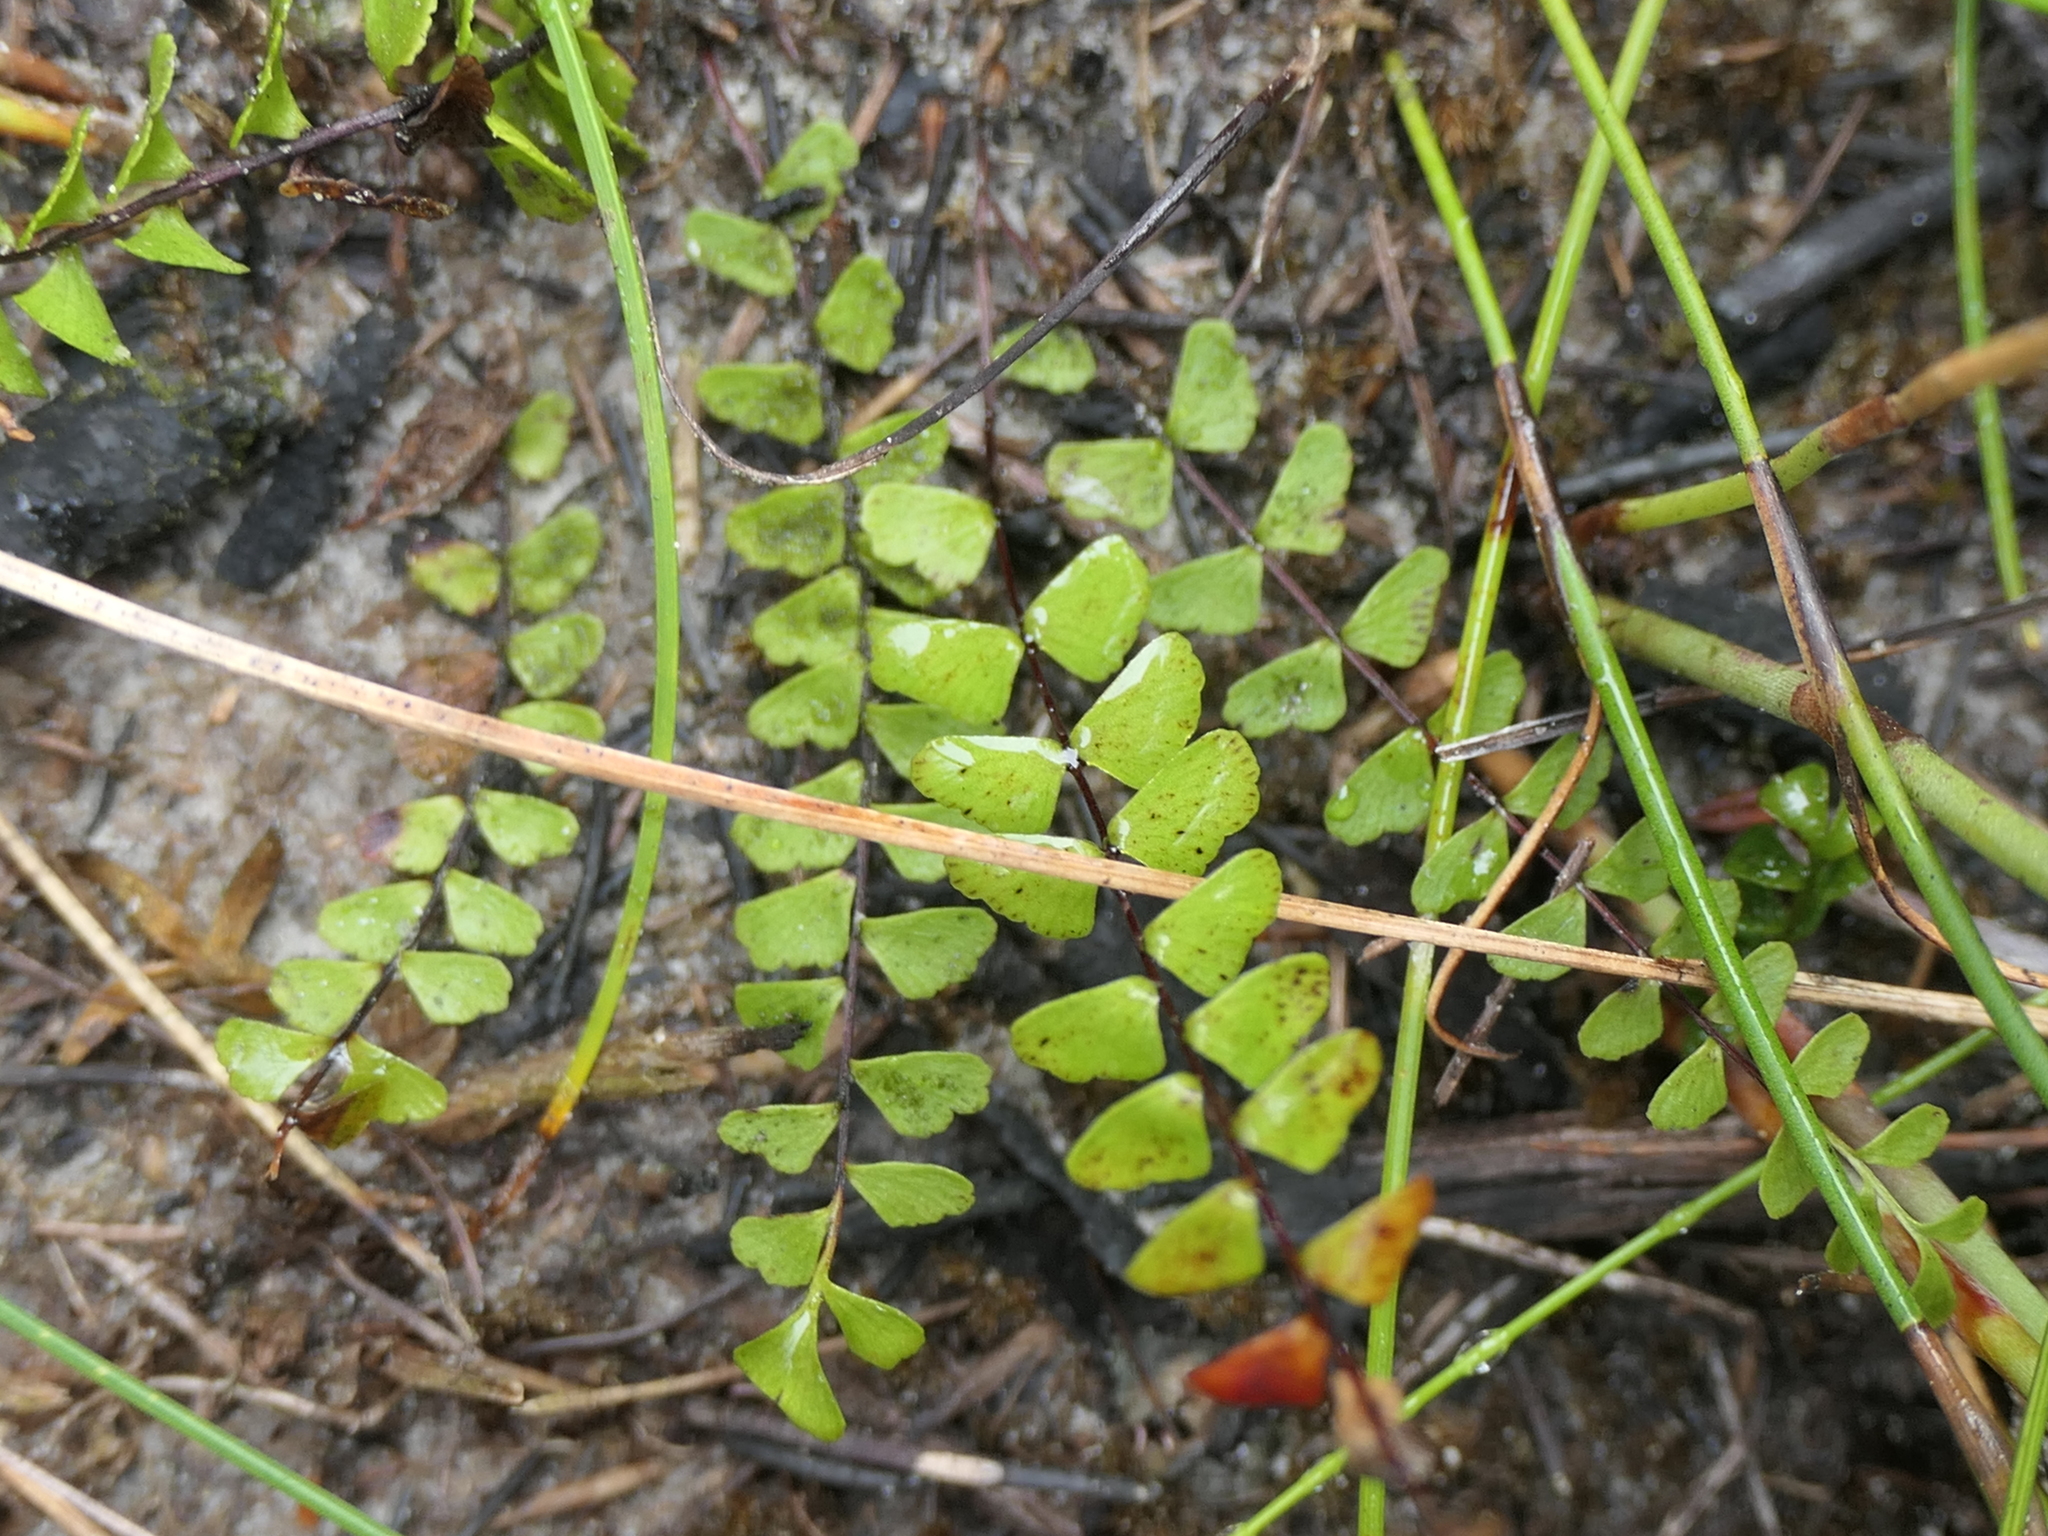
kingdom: Plantae
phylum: Tracheophyta
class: Polypodiopsida
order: Polypodiales
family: Lindsaeaceae
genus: Lindsaea
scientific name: Lindsaea linearis
